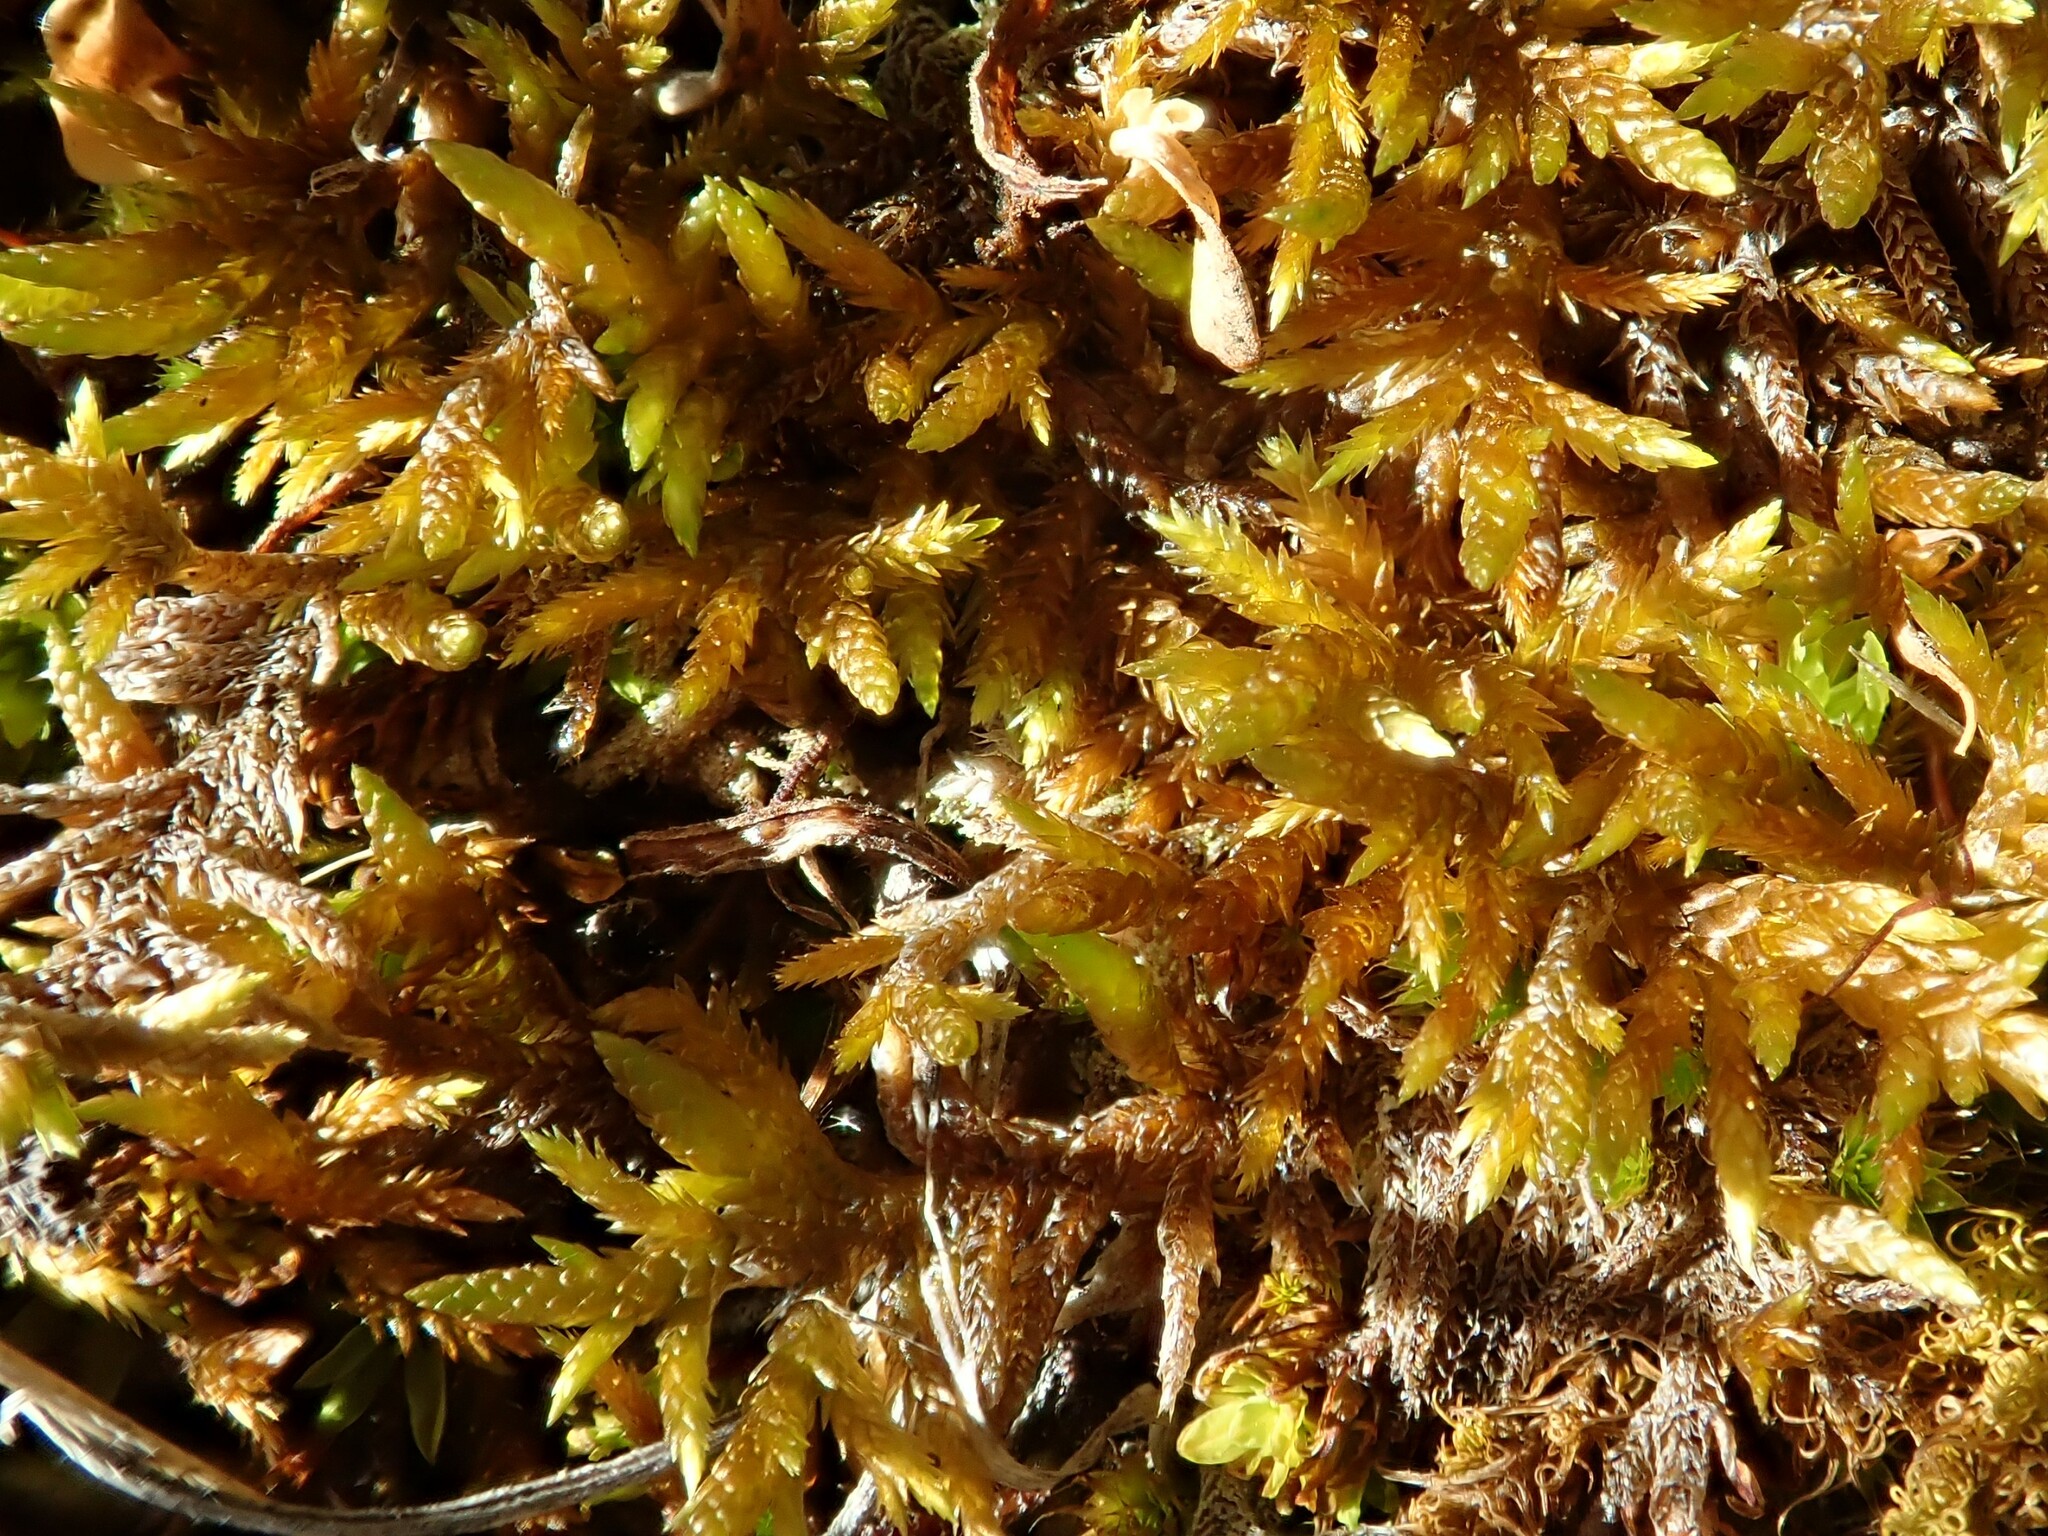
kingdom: Plantae
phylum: Bryophyta
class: Bryopsida
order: Hypnales
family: Entodontaceae
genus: Entodon
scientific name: Entodon concinnus
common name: Montagne's cylinder-moss
